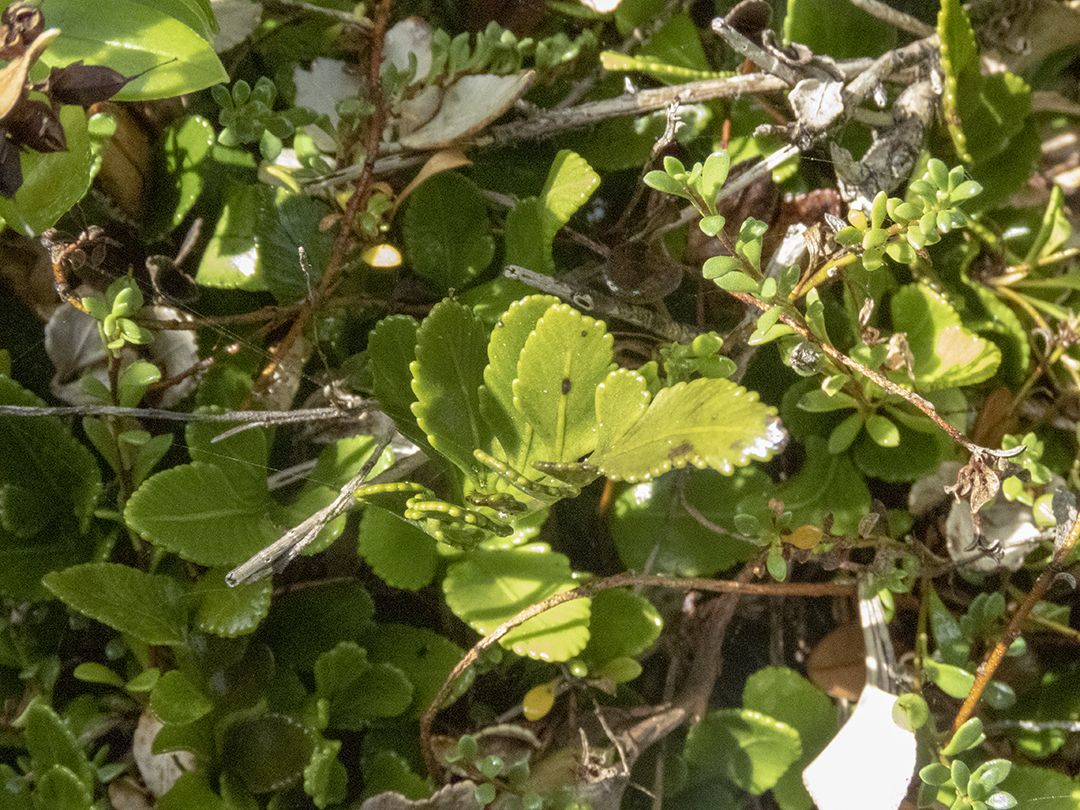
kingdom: Plantae
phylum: Tracheophyta
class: Polypodiopsida
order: Polypodiales
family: Aspleniaceae
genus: Asplenium
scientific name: Asplenium obtusatum
